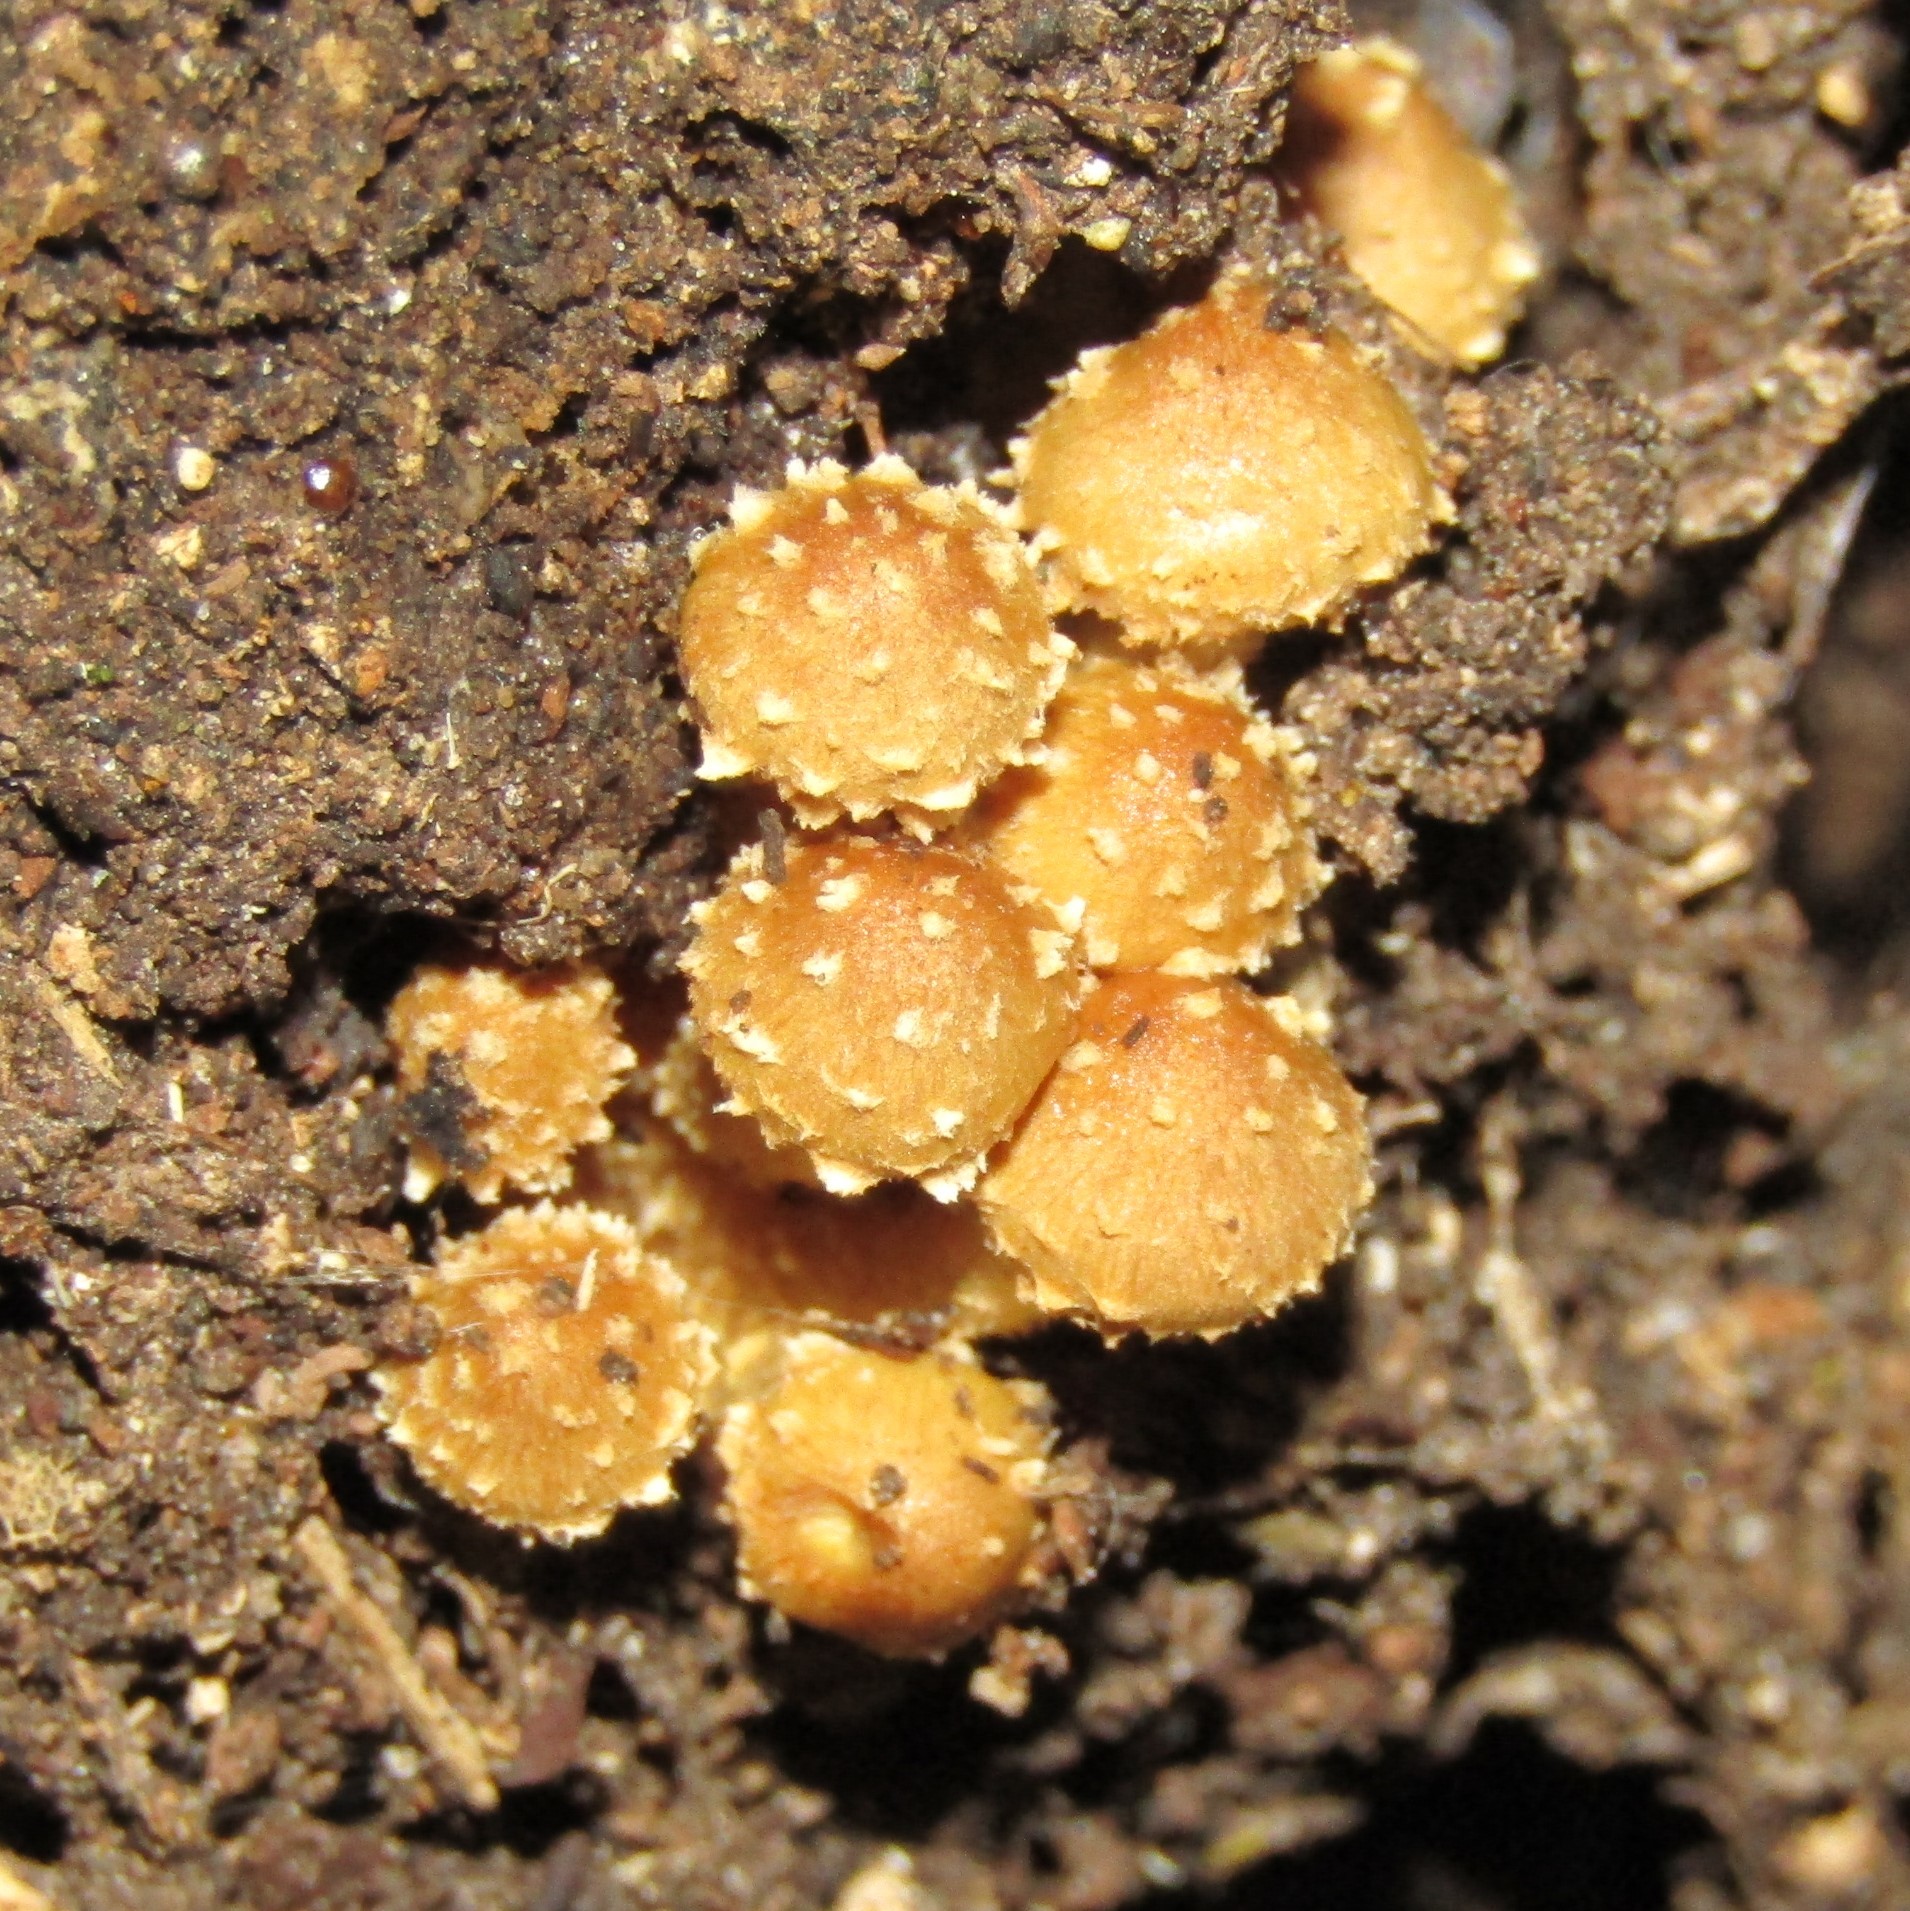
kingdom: Fungi
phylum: Basidiomycota
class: Agaricomycetes
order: Agaricales
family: Strophariaceae
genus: Pholiota
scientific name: Pholiota subflammans
